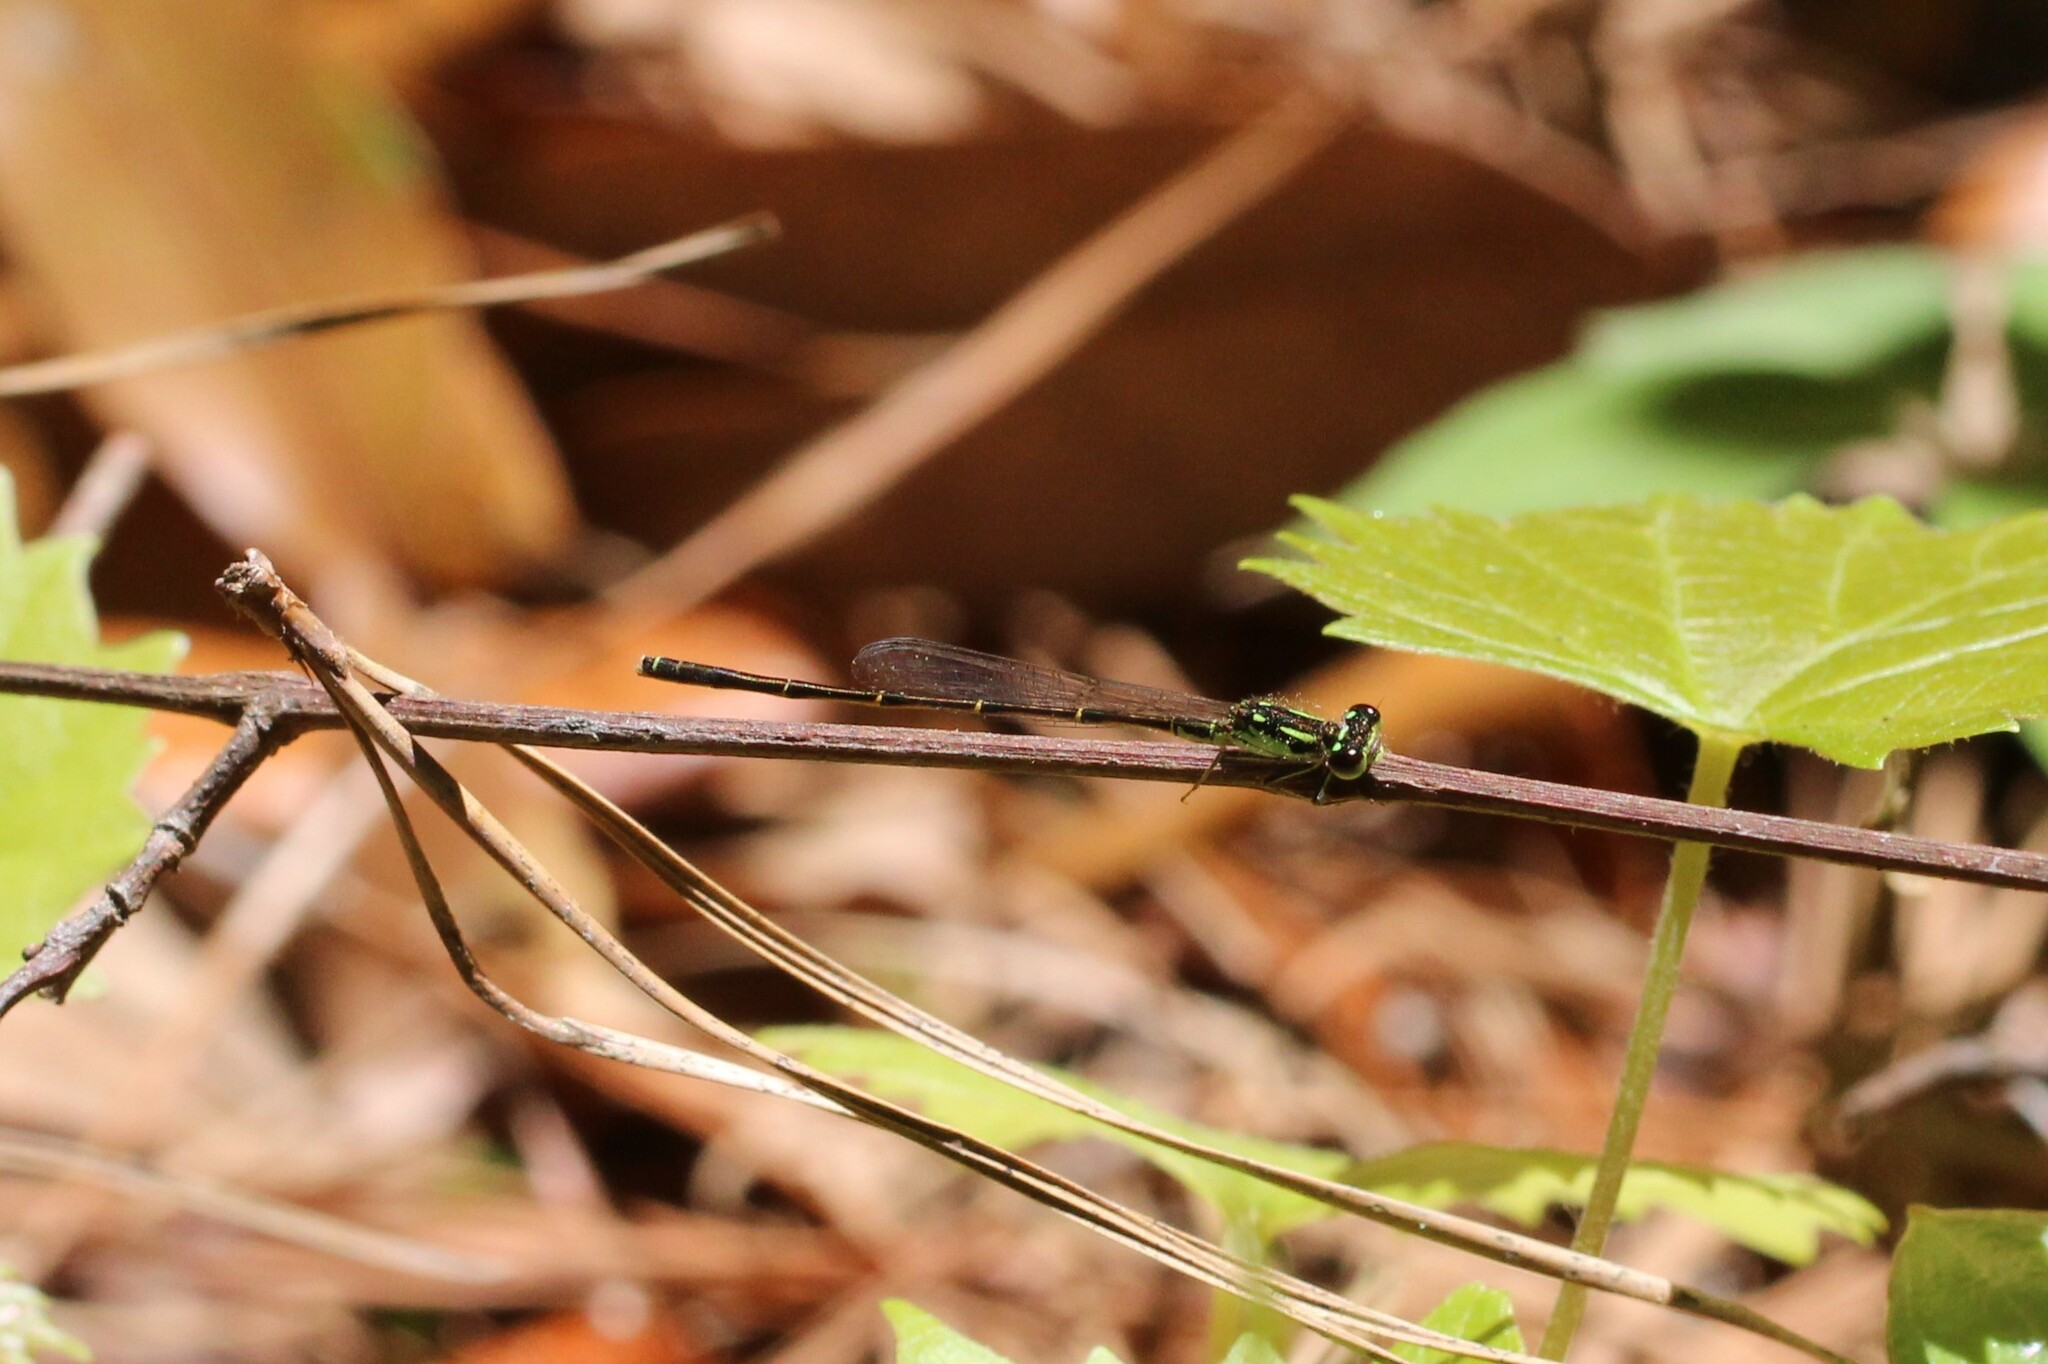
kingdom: Animalia
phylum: Arthropoda
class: Insecta
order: Odonata
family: Coenagrionidae
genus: Ischnura
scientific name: Ischnura posita
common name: Fragile forktail
